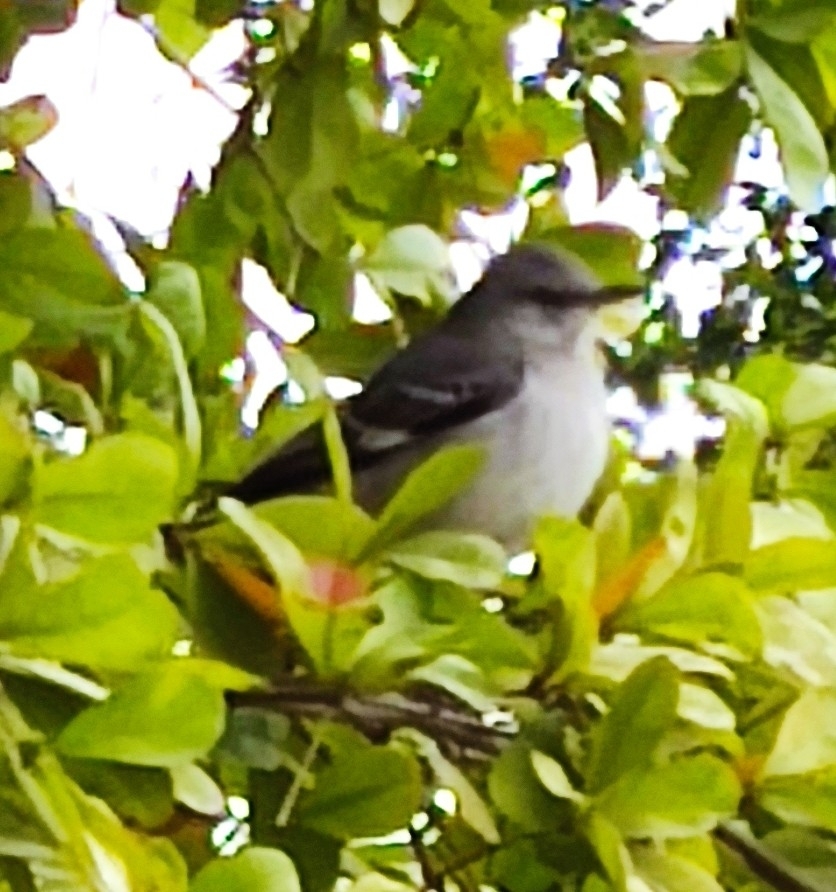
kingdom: Animalia
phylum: Chordata
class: Aves
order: Passeriformes
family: Mimidae
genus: Mimus
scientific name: Mimus polyglottos
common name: Northern mockingbird
